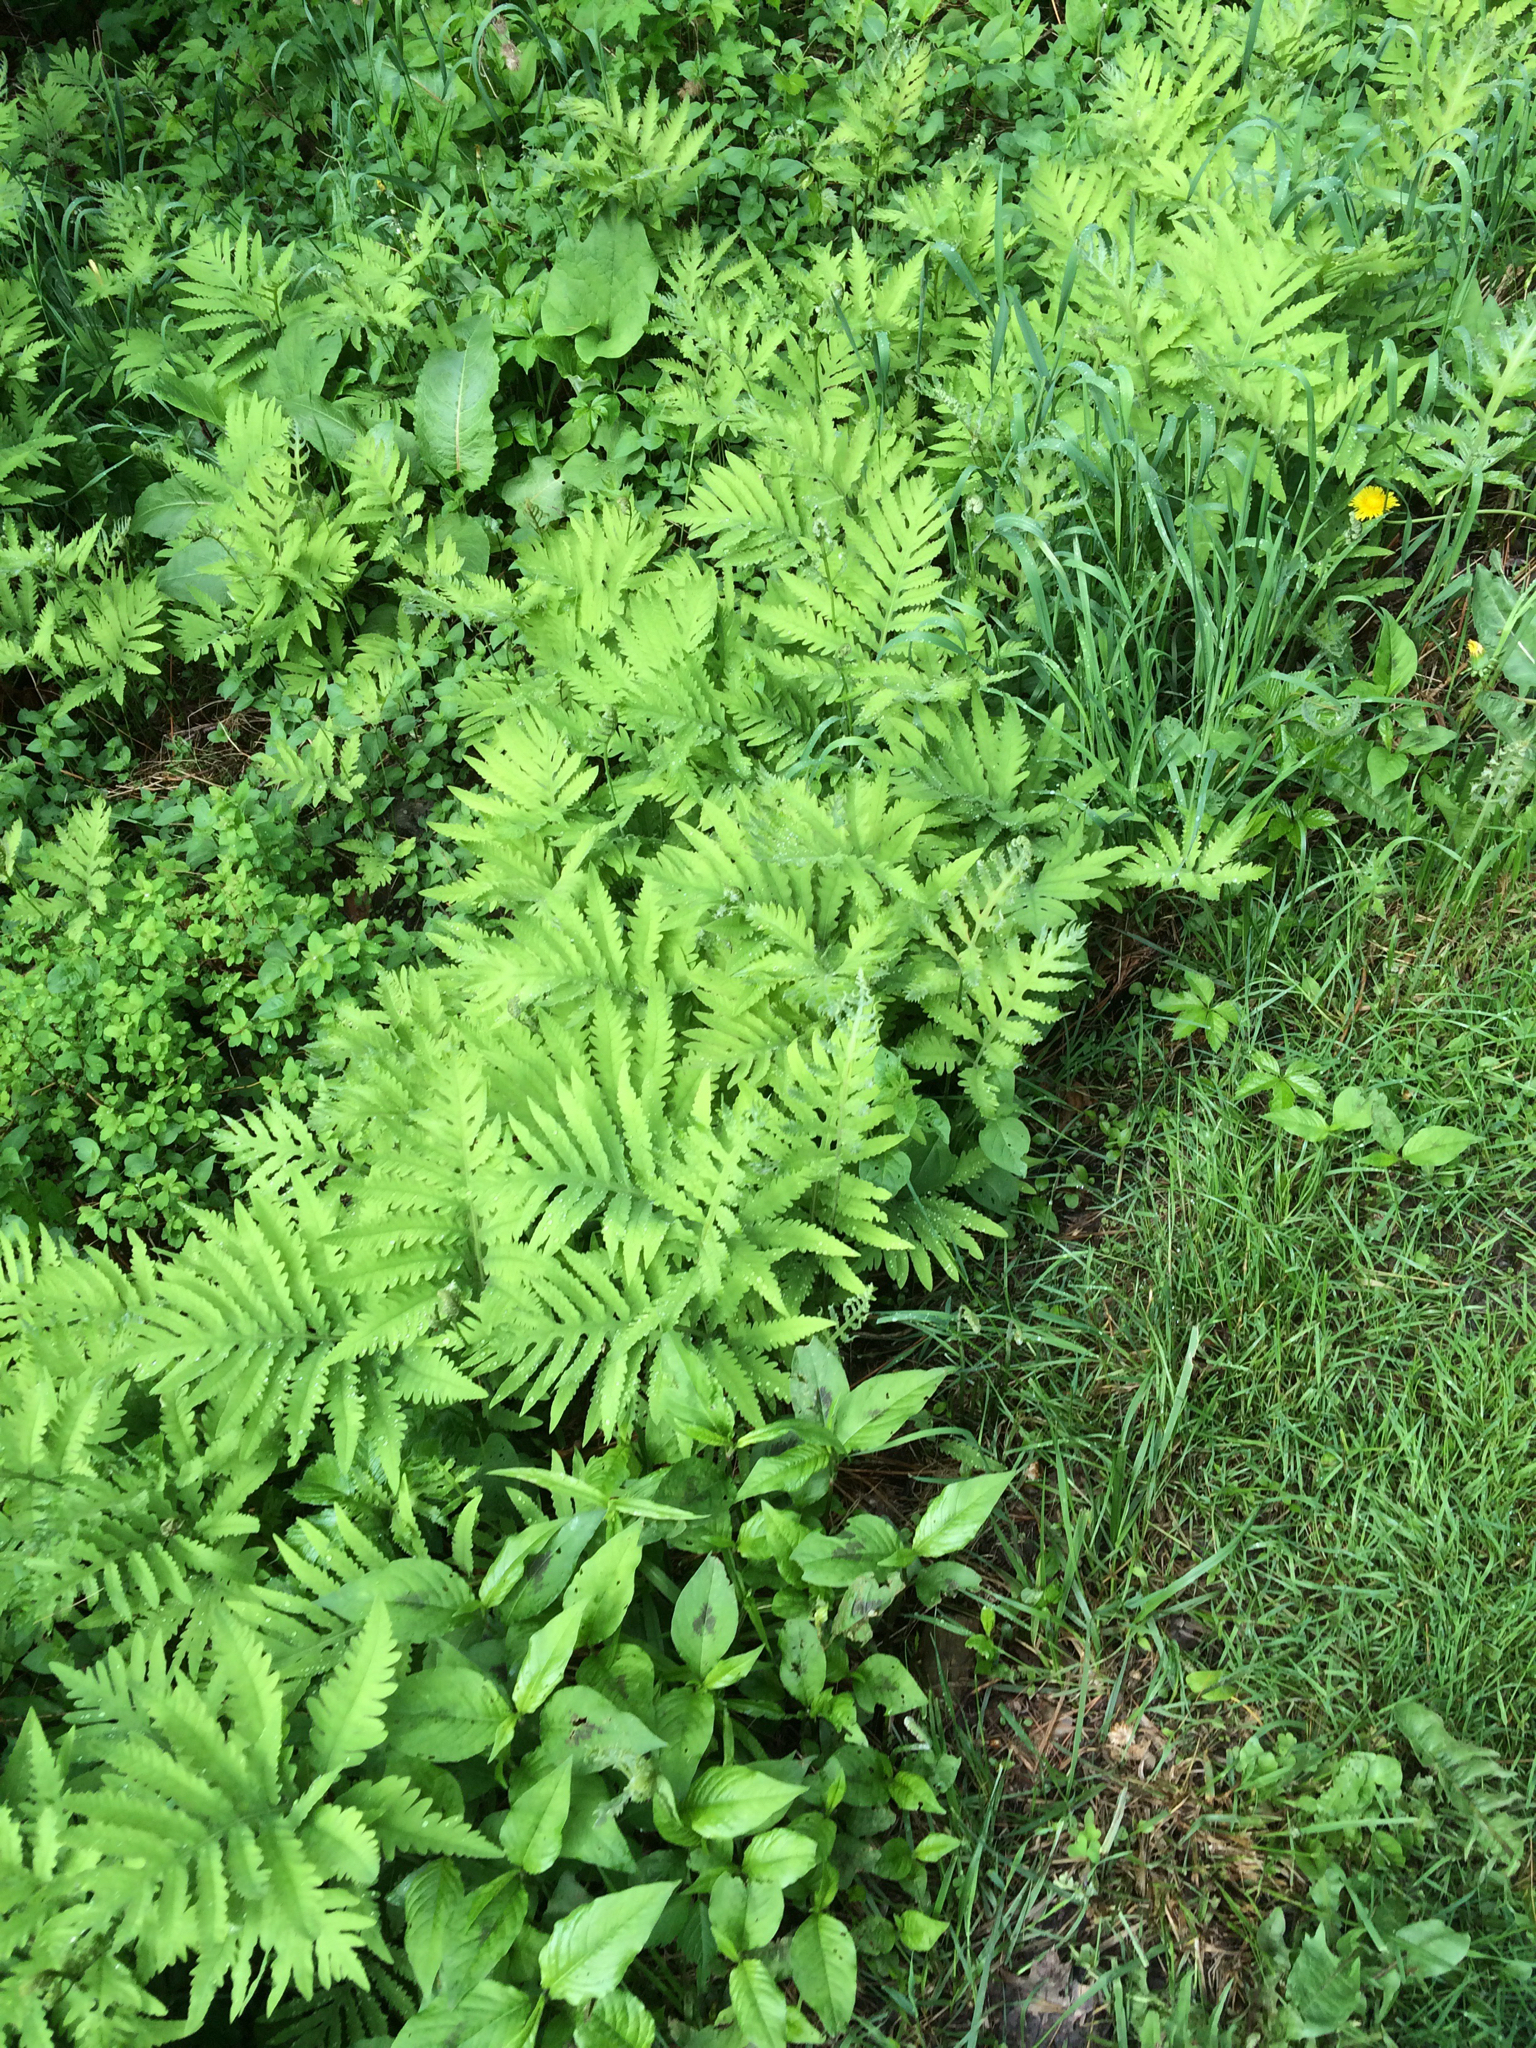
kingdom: Plantae
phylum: Tracheophyta
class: Polypodiopsida
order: Polypodiales
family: Onocleaceae
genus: Onoclea
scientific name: Onoclea sensibilis
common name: Sensitive fern
